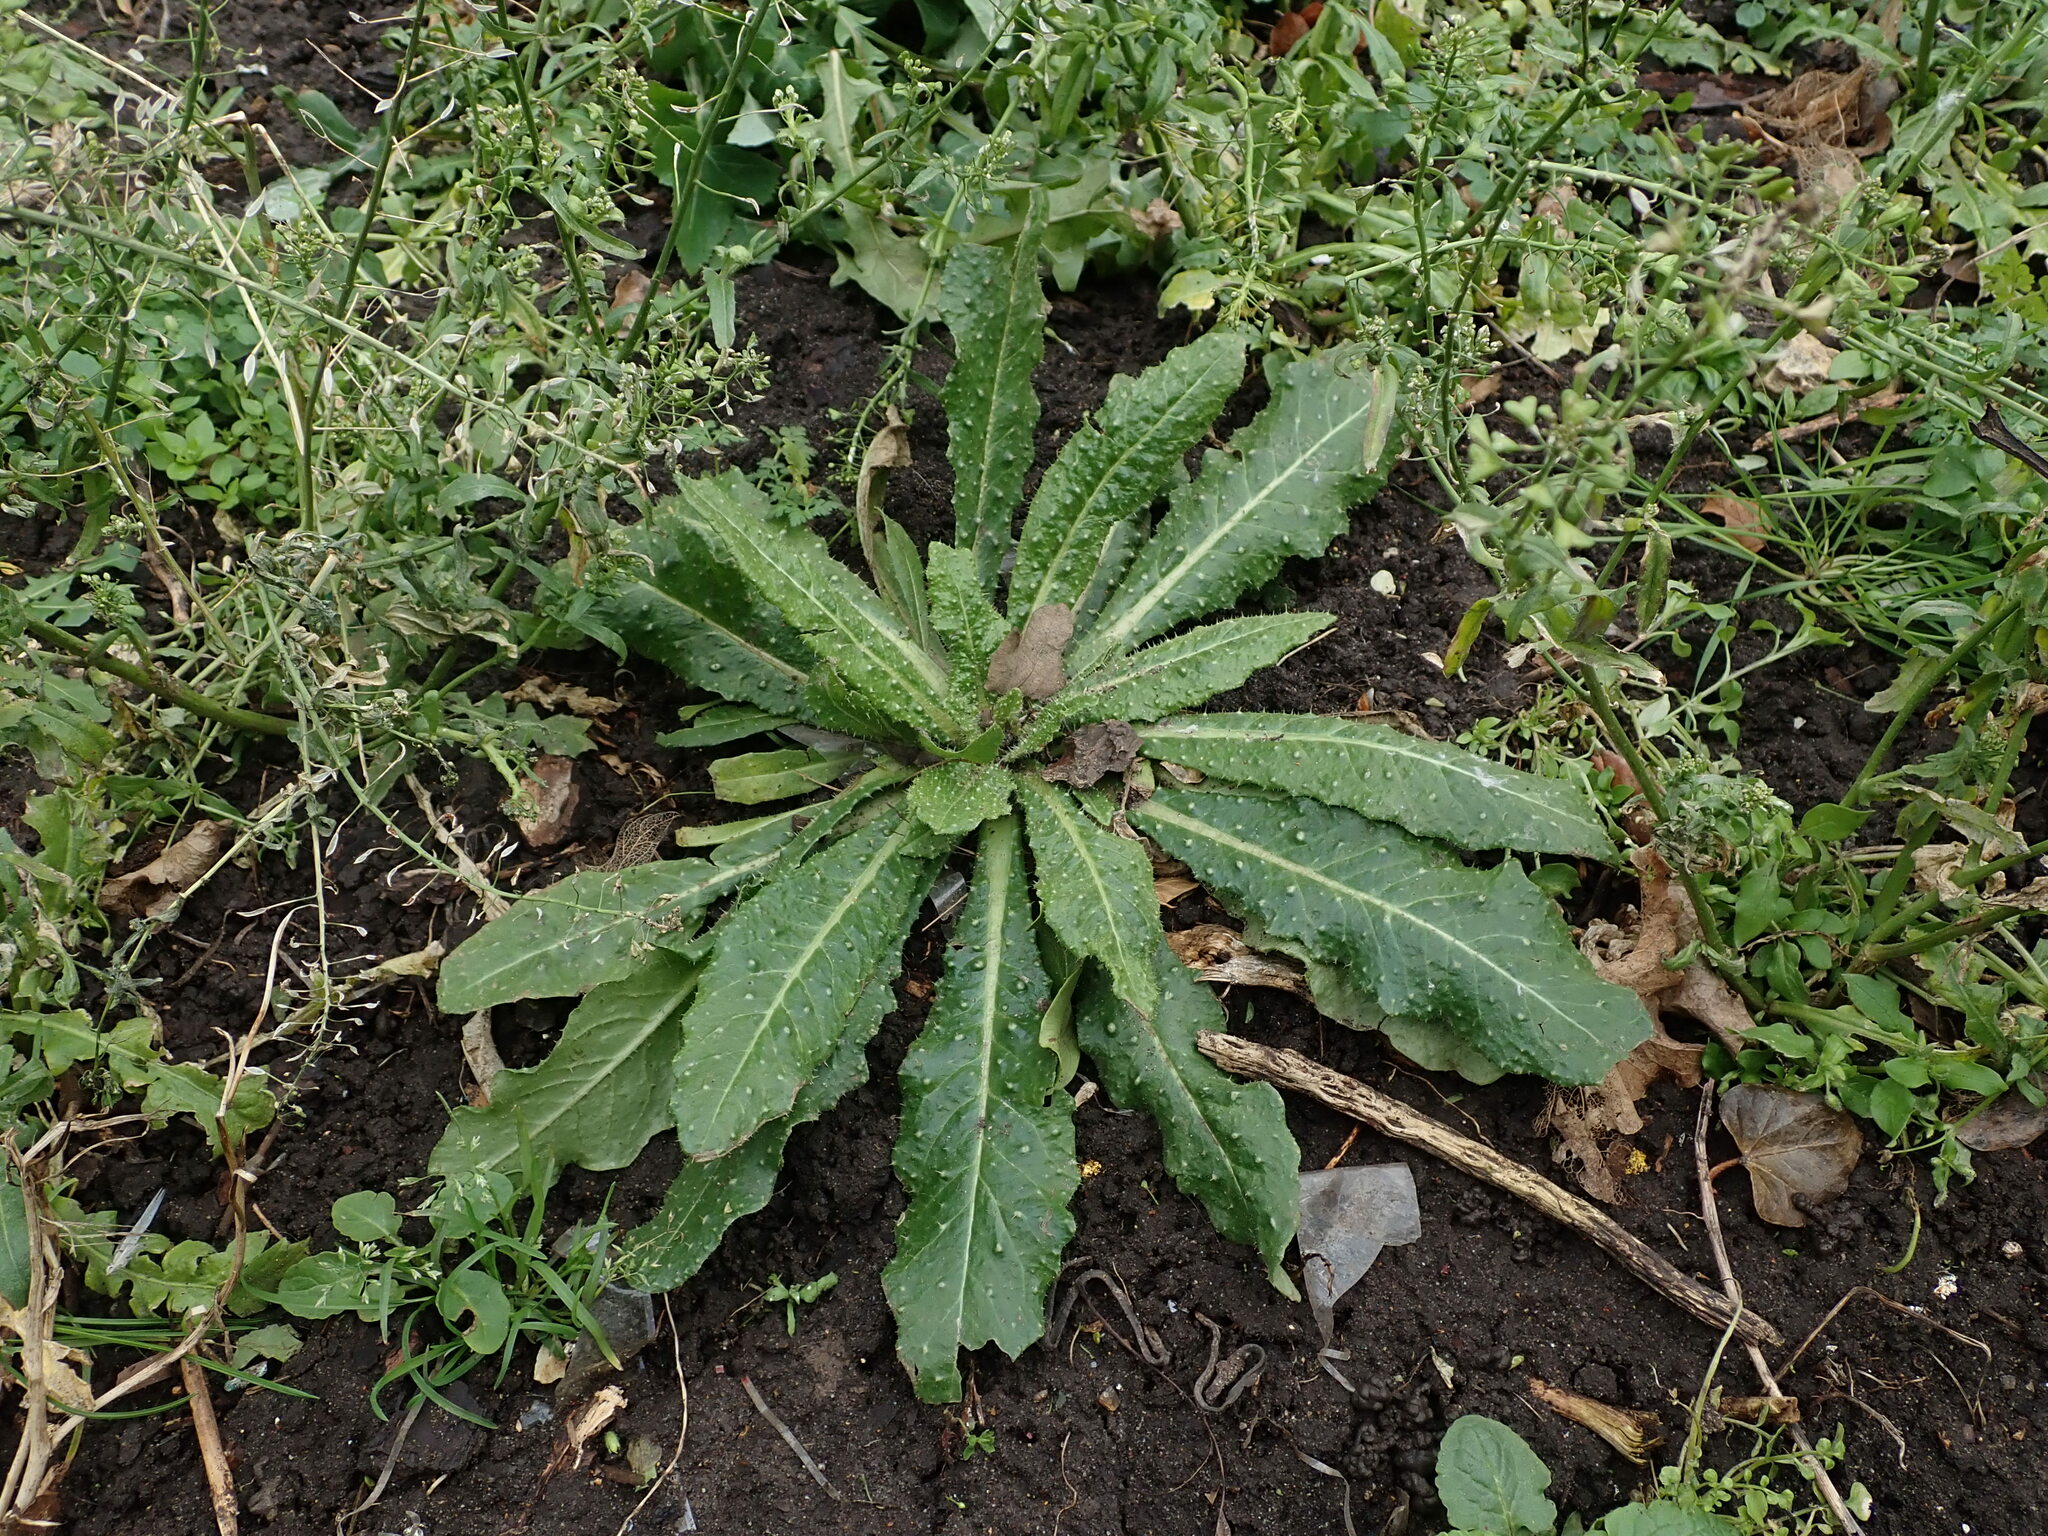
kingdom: Plantae
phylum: Tracheophyta
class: Magnoliopsida
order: Asterales
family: Asteraceae
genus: Helminthotheca
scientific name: Helminthotheca echioides
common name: Ox-tongue
